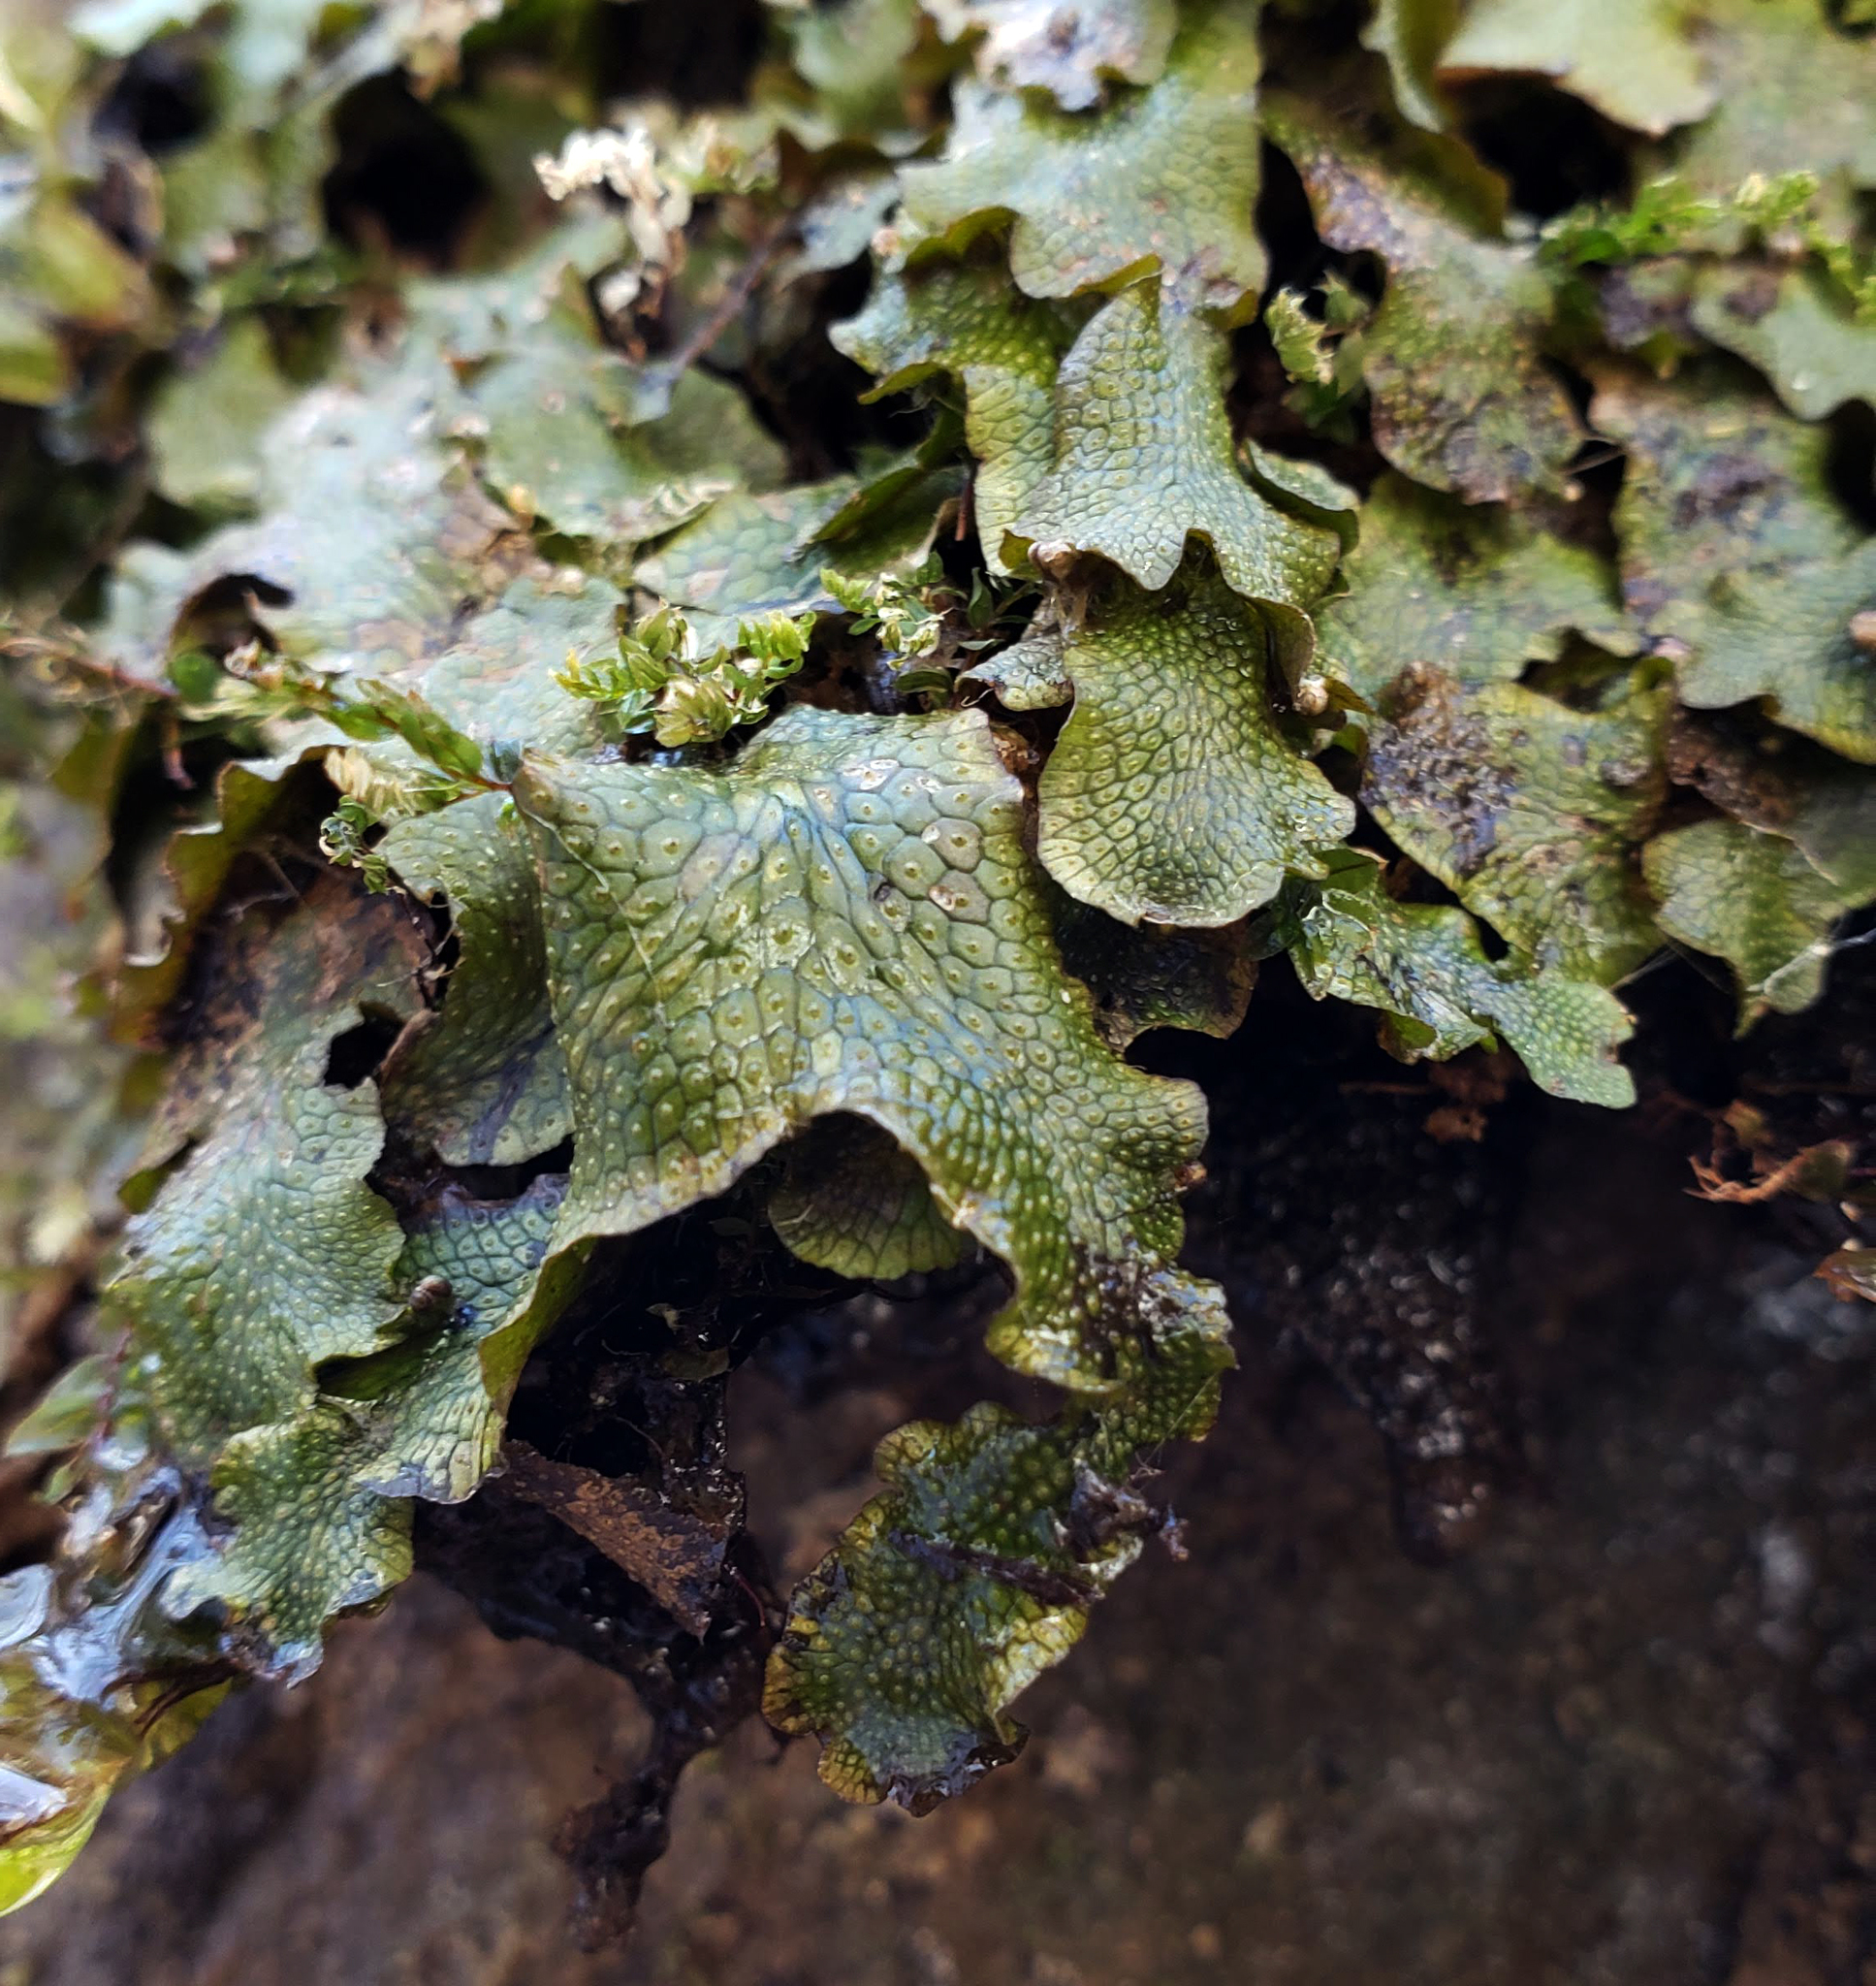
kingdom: Plantae
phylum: Marchantiophyta
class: Marchantiopsida
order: Marchantiales
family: Conocephalaceae
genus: Conocephalum
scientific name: Conocephalum salebrosum
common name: Cat-tongue liverwort
